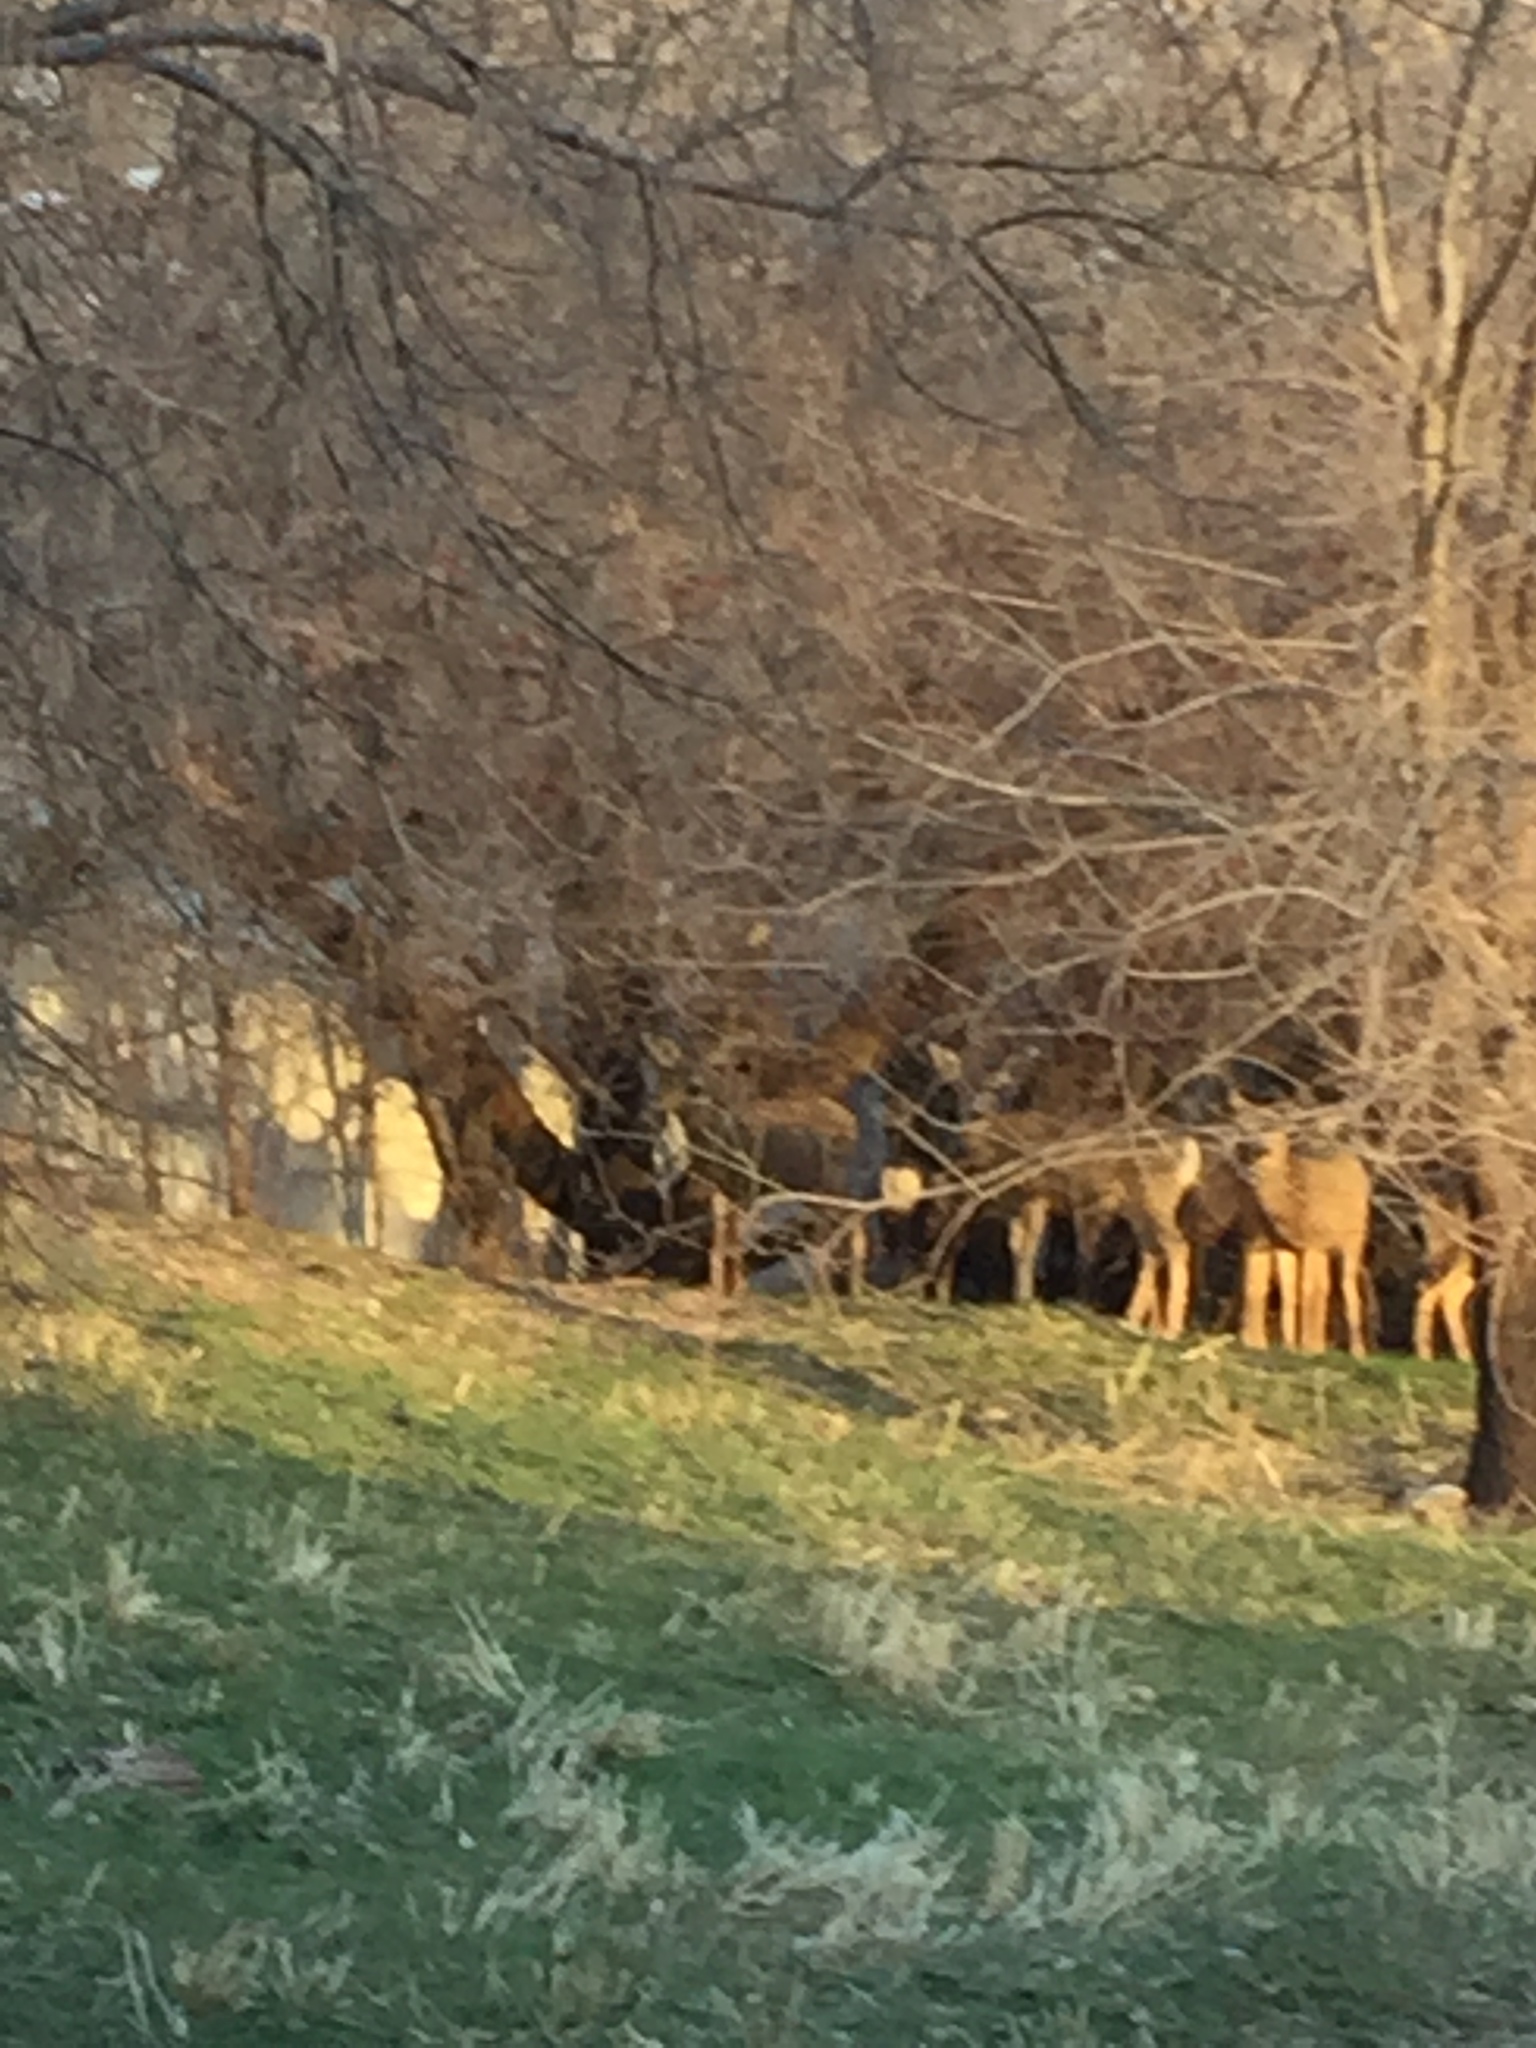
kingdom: Animalia
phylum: Chordata
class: Mammalia
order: Artiodactyla
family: Cervidae
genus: Odocoileus
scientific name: Odocoileus hemionus
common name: Mule deer
